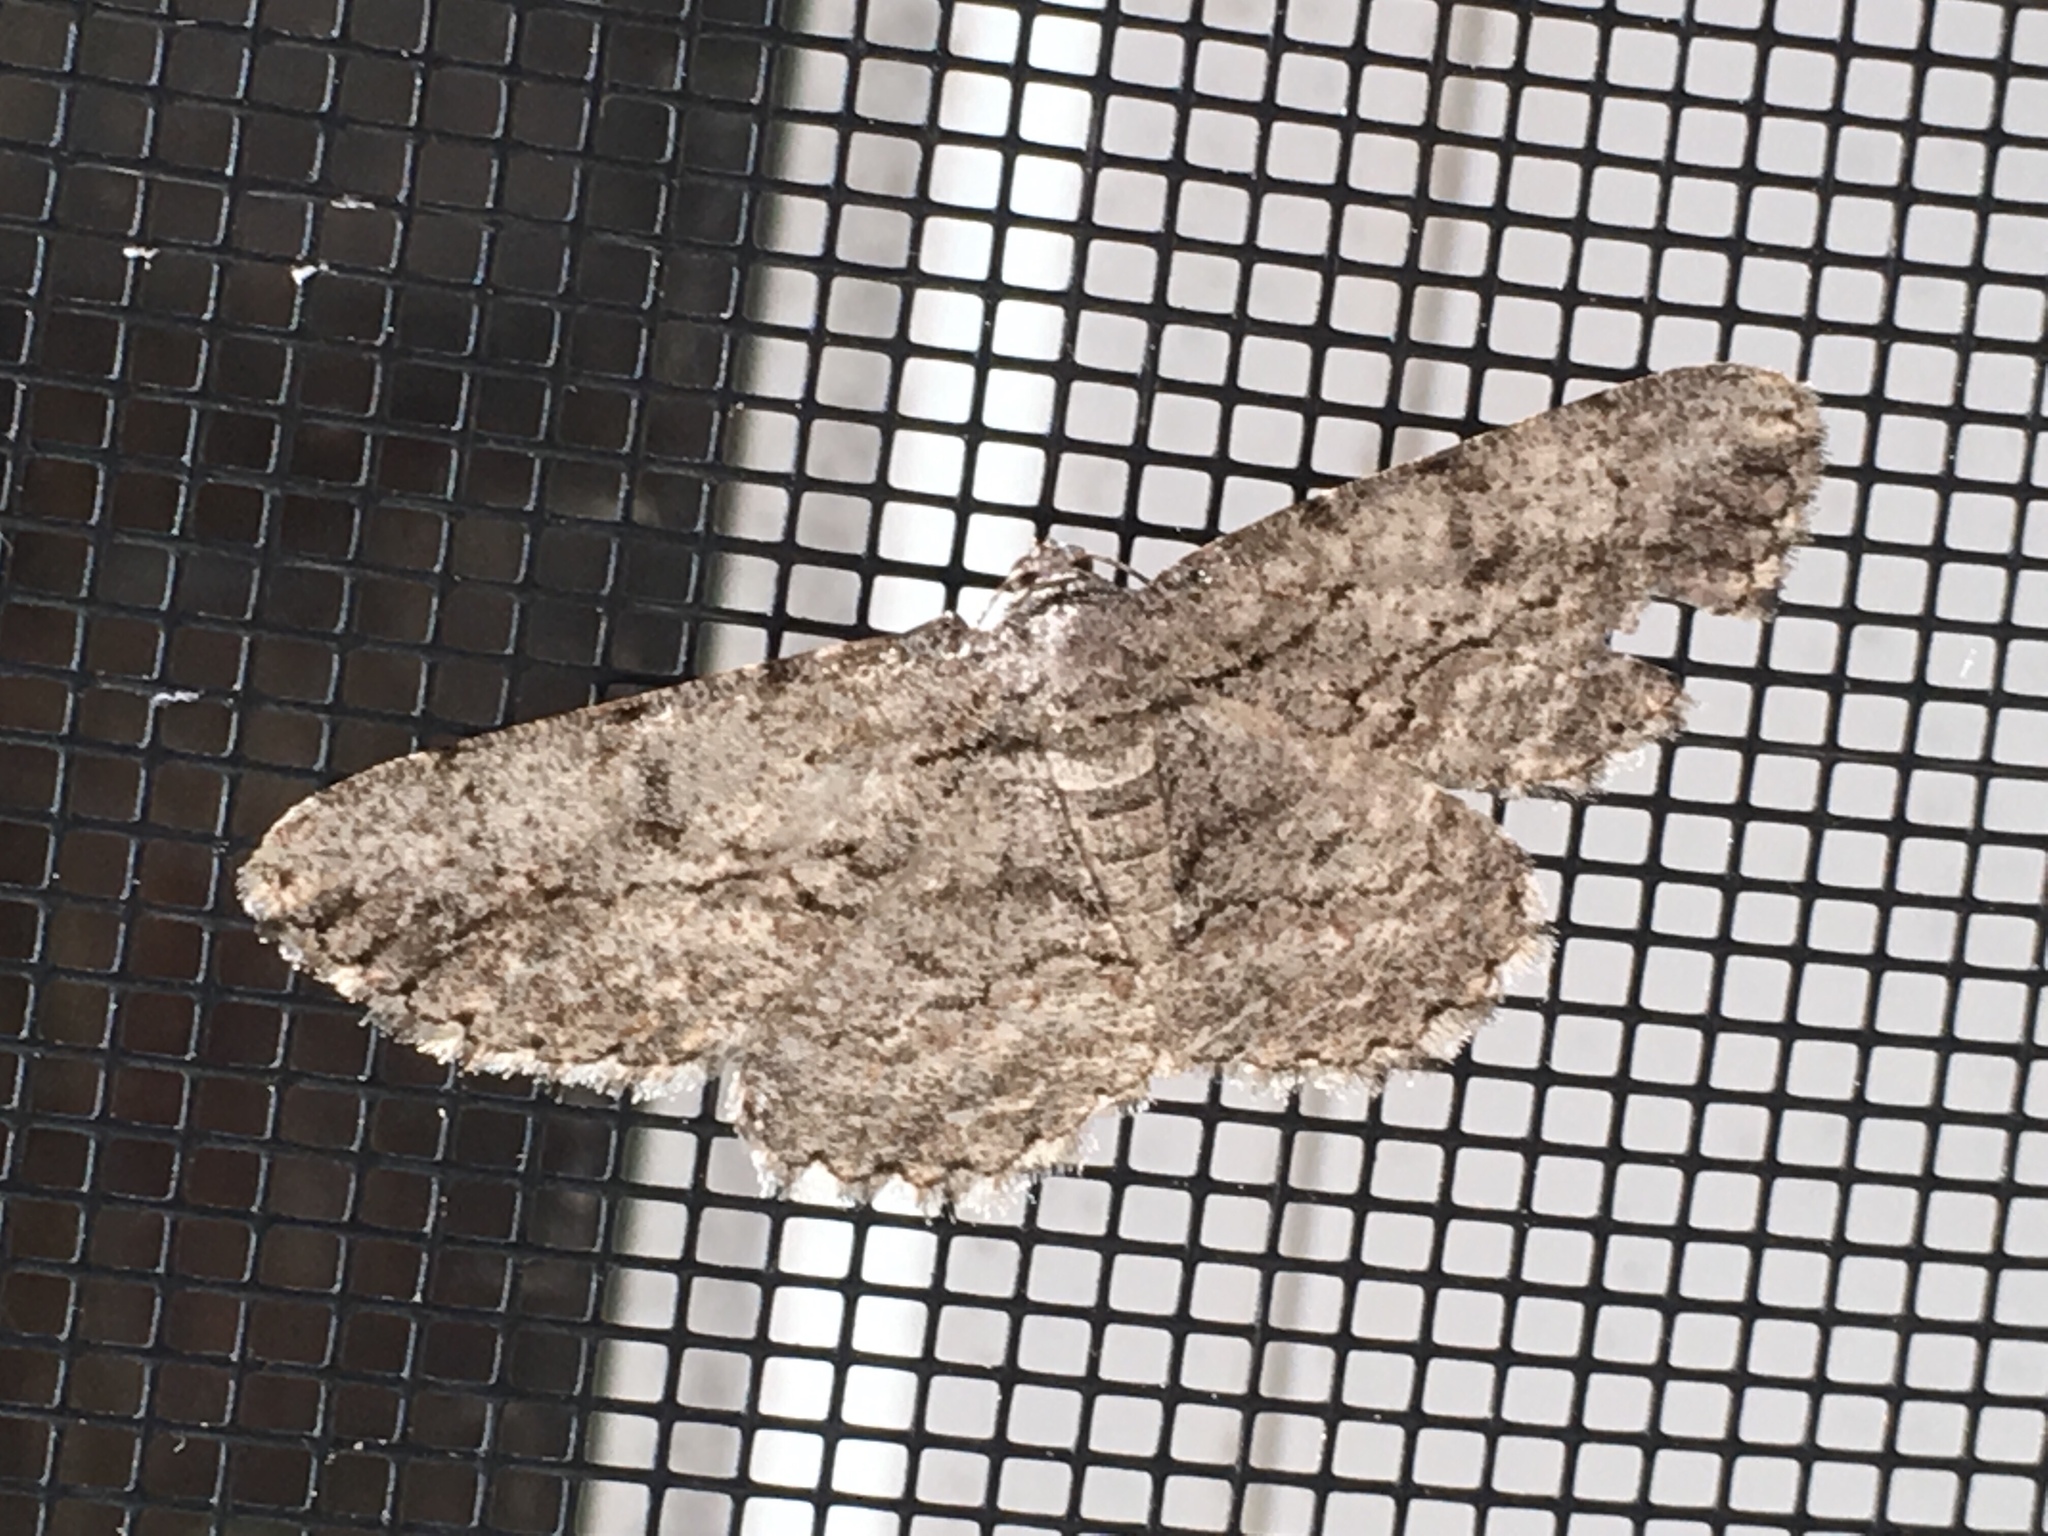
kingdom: Animalia
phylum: Arthropoda
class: Insecta
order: Lepidoptera
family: Geometridae
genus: Anavitrinella
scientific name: Anavitrinella pampinaria
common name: Common gray
